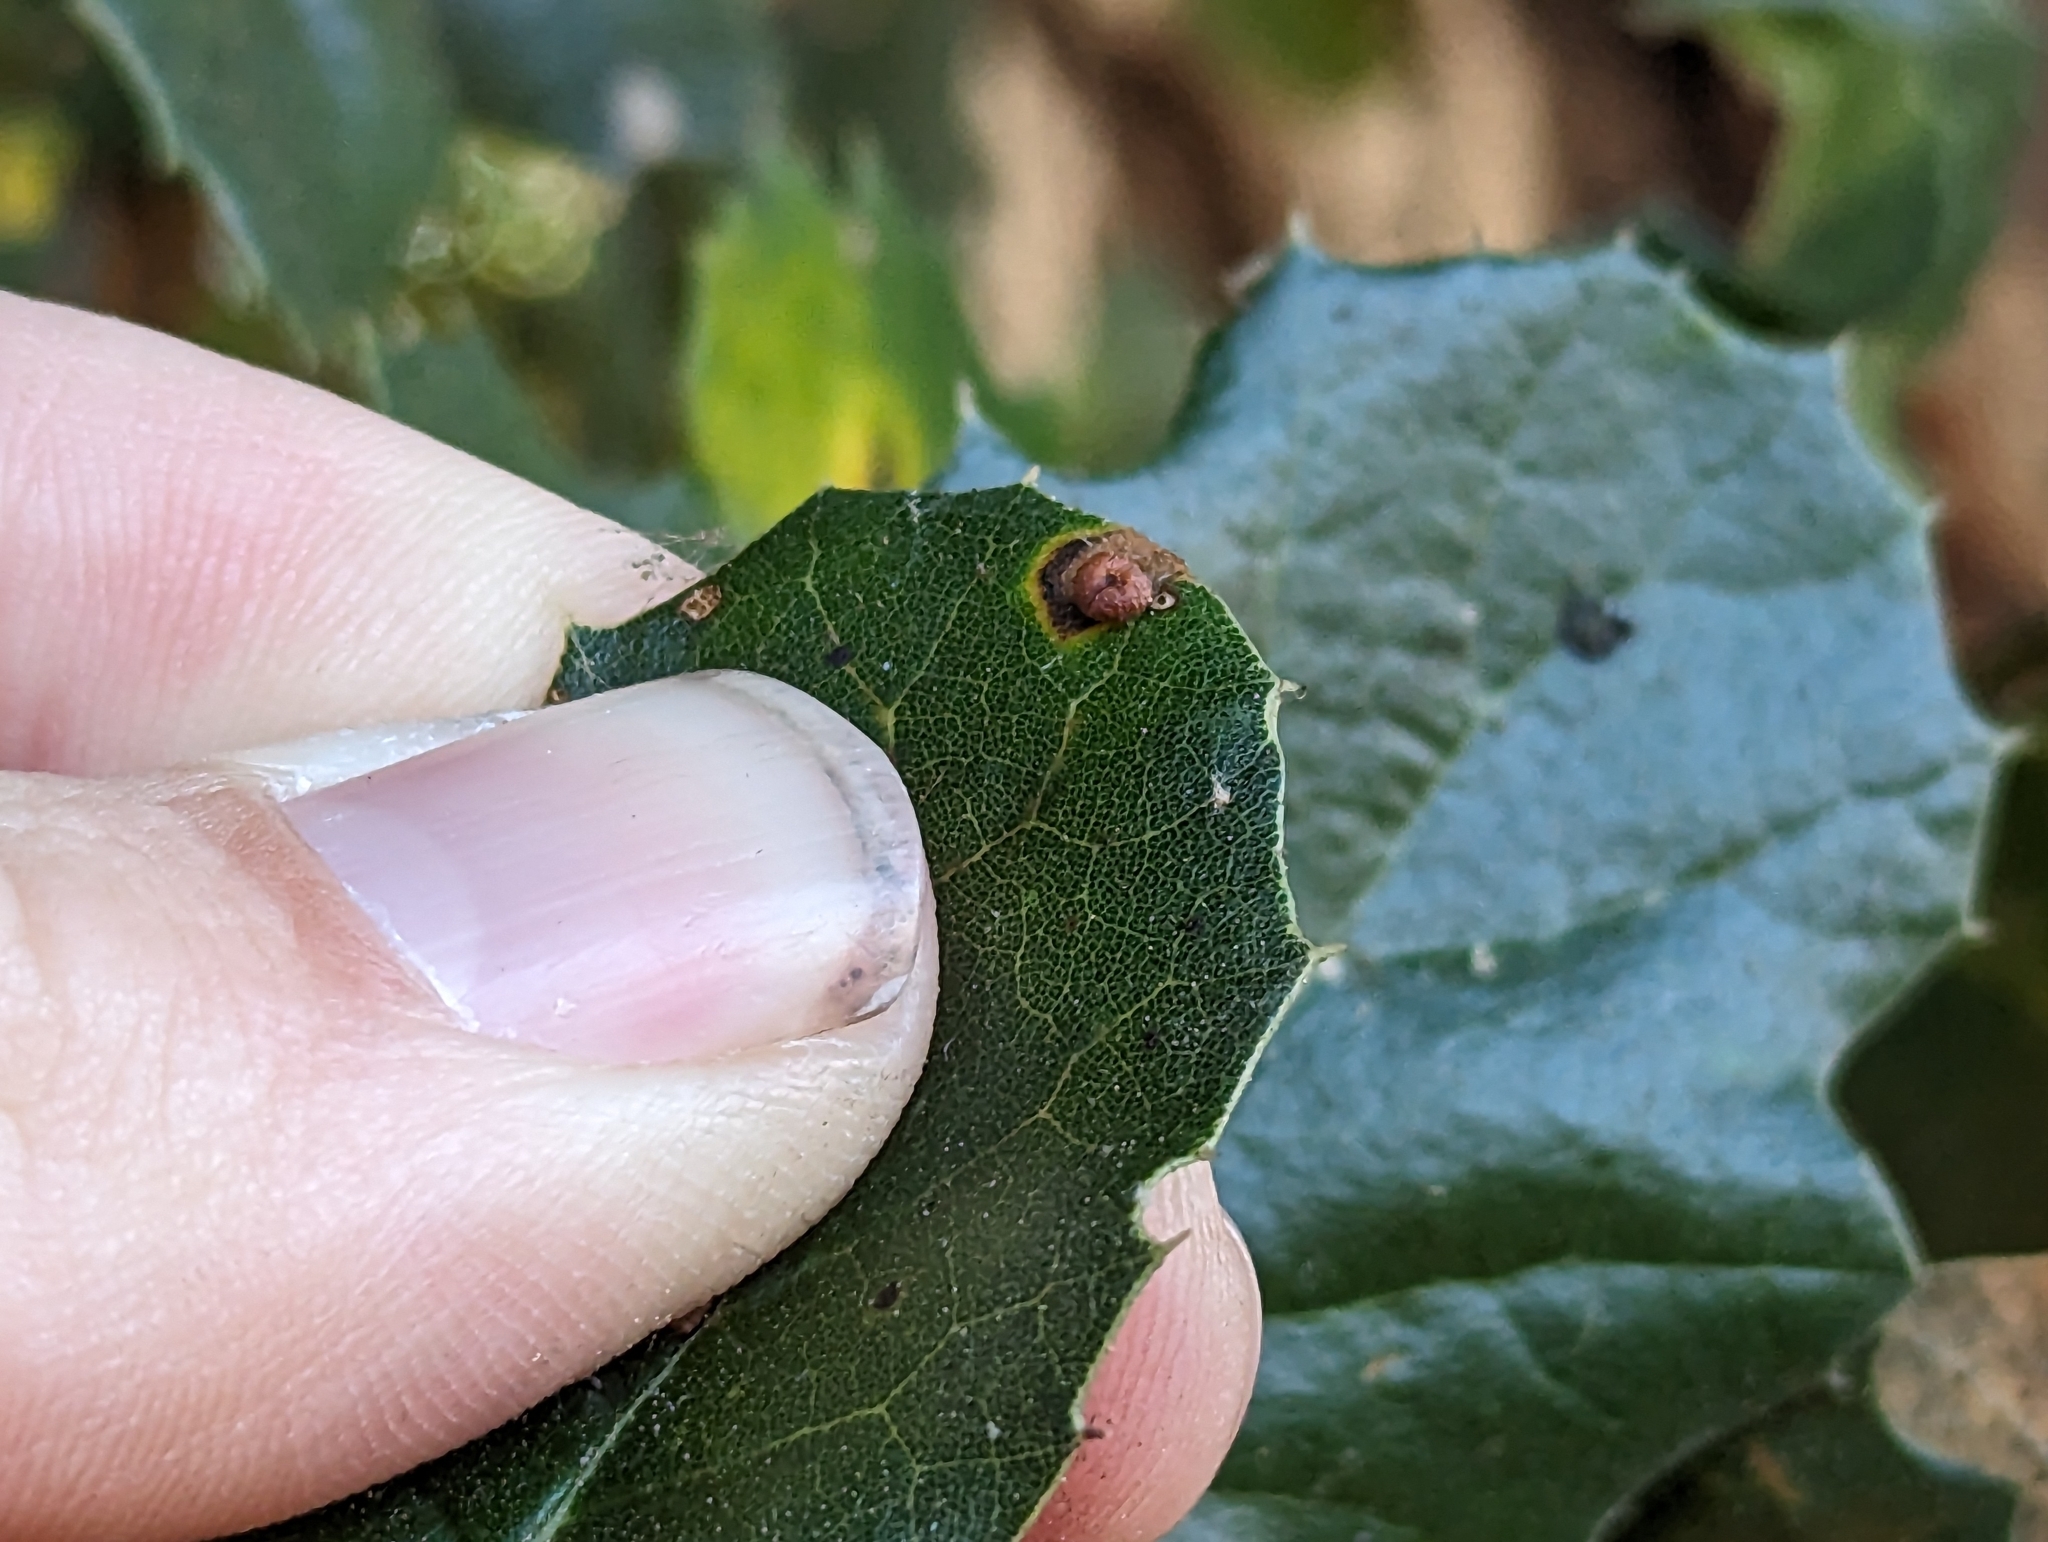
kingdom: Animalia
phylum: Arthropoda
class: Insecta
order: Hymenoptera
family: Cynipidae
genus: Dryocosmus
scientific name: Dryocosmus
